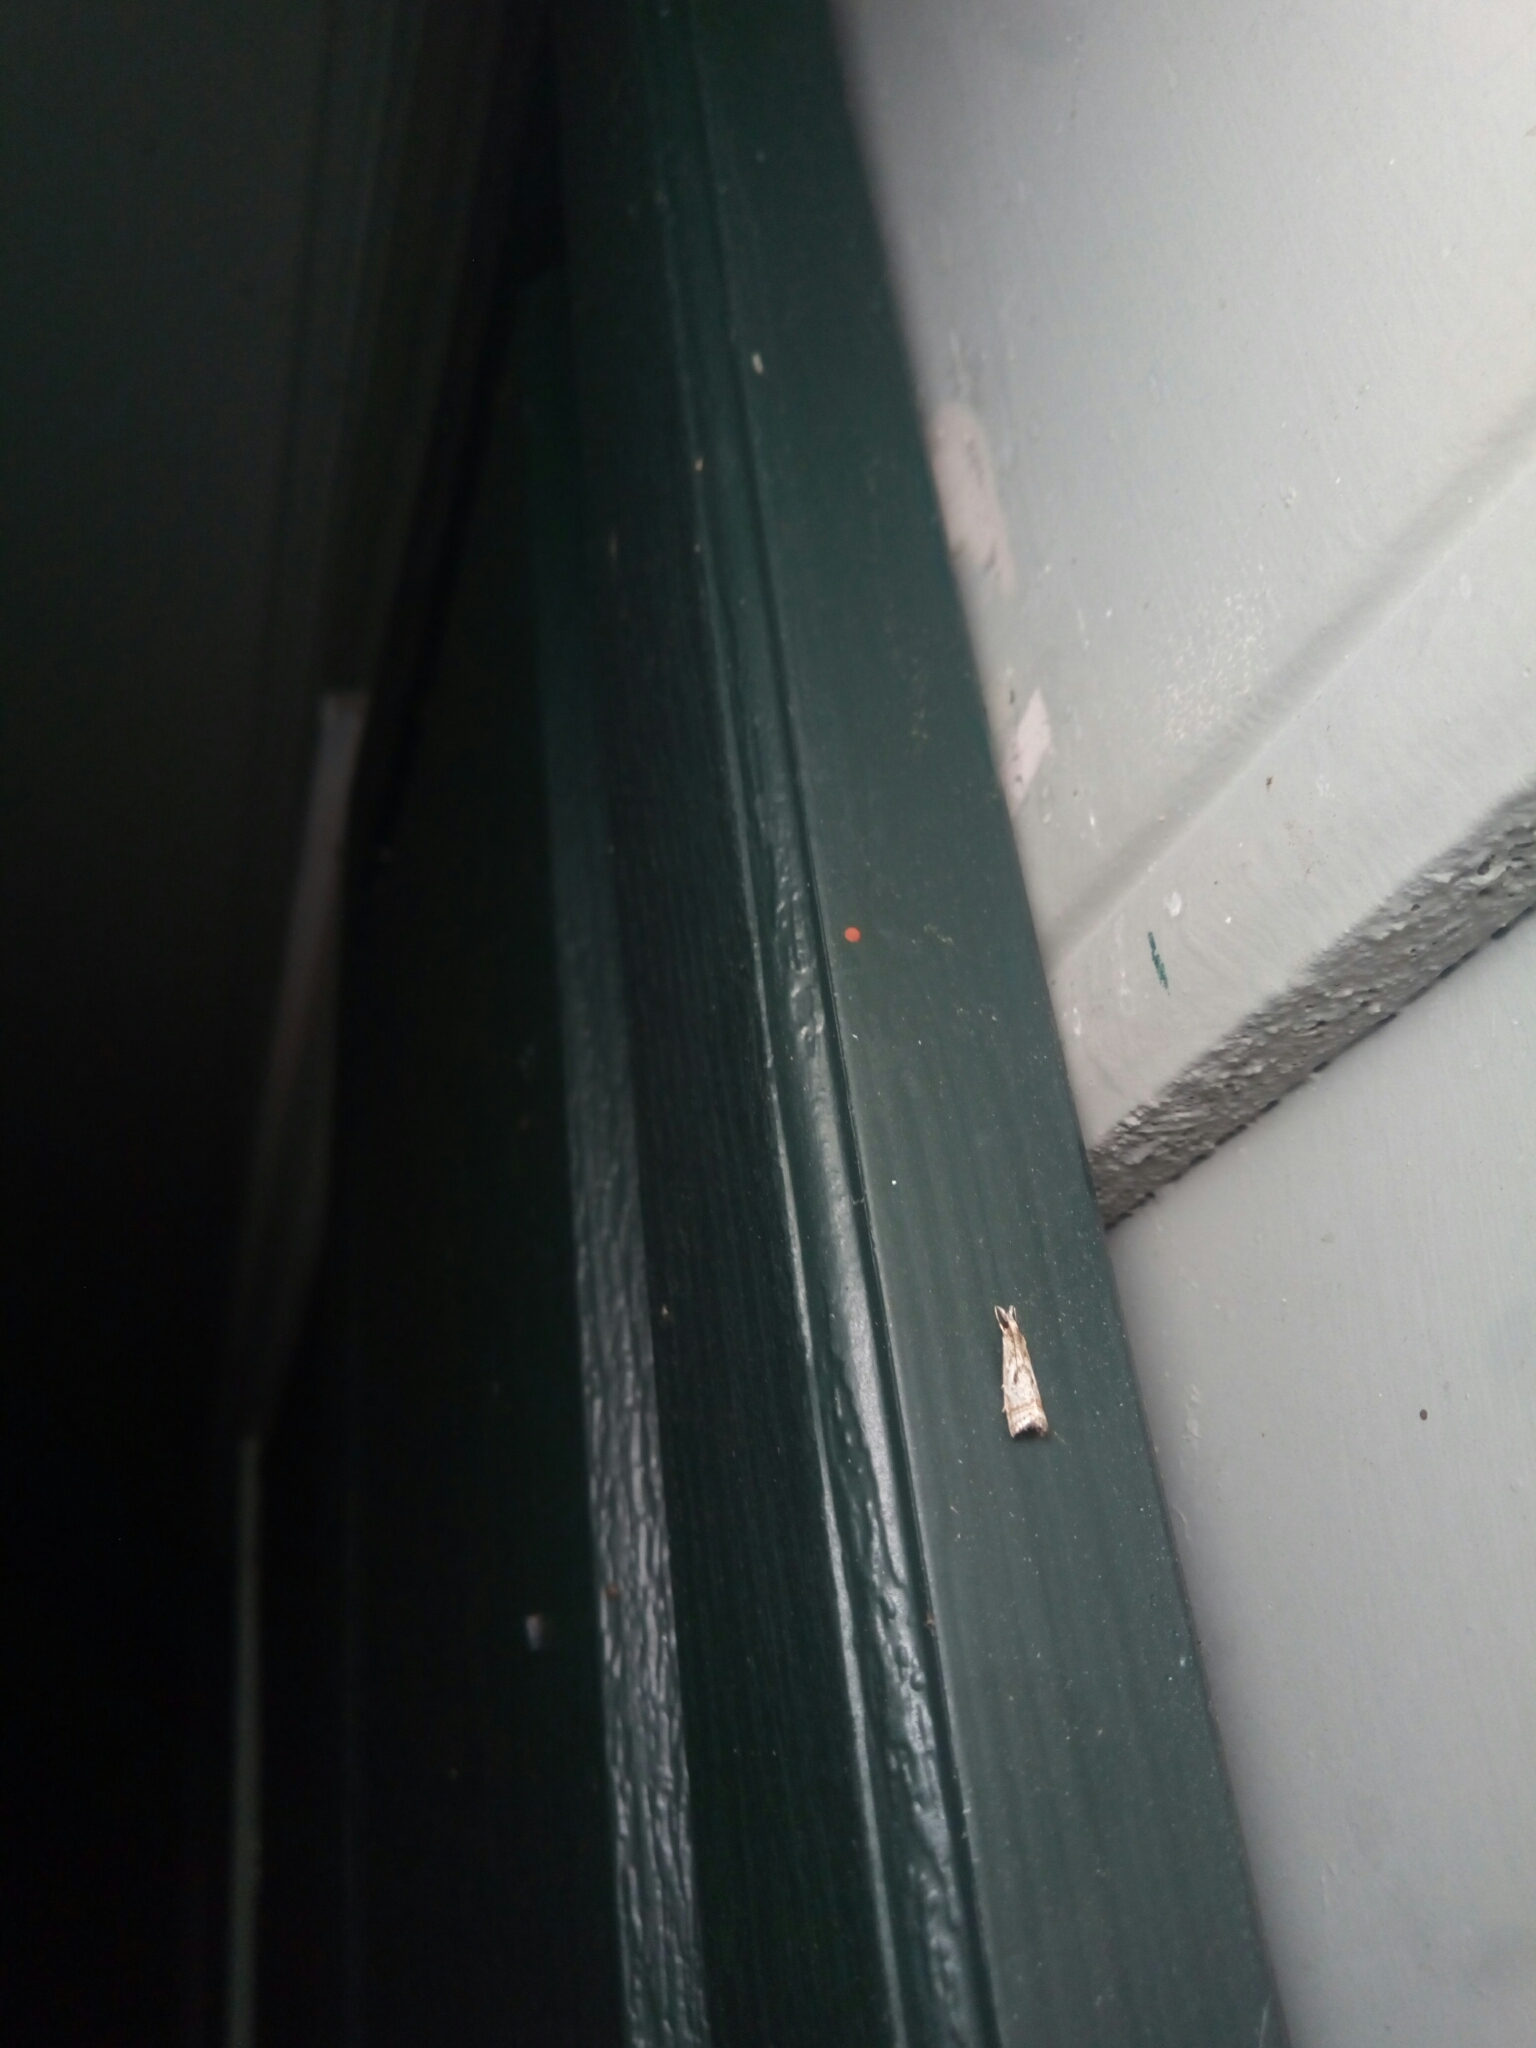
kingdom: Animalia
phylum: Arthropoda
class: Insecta
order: Lepidoptera
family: Crambidae
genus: Microcrambus
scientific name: Microcrambus elegans
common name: Elegant grass-veneer
